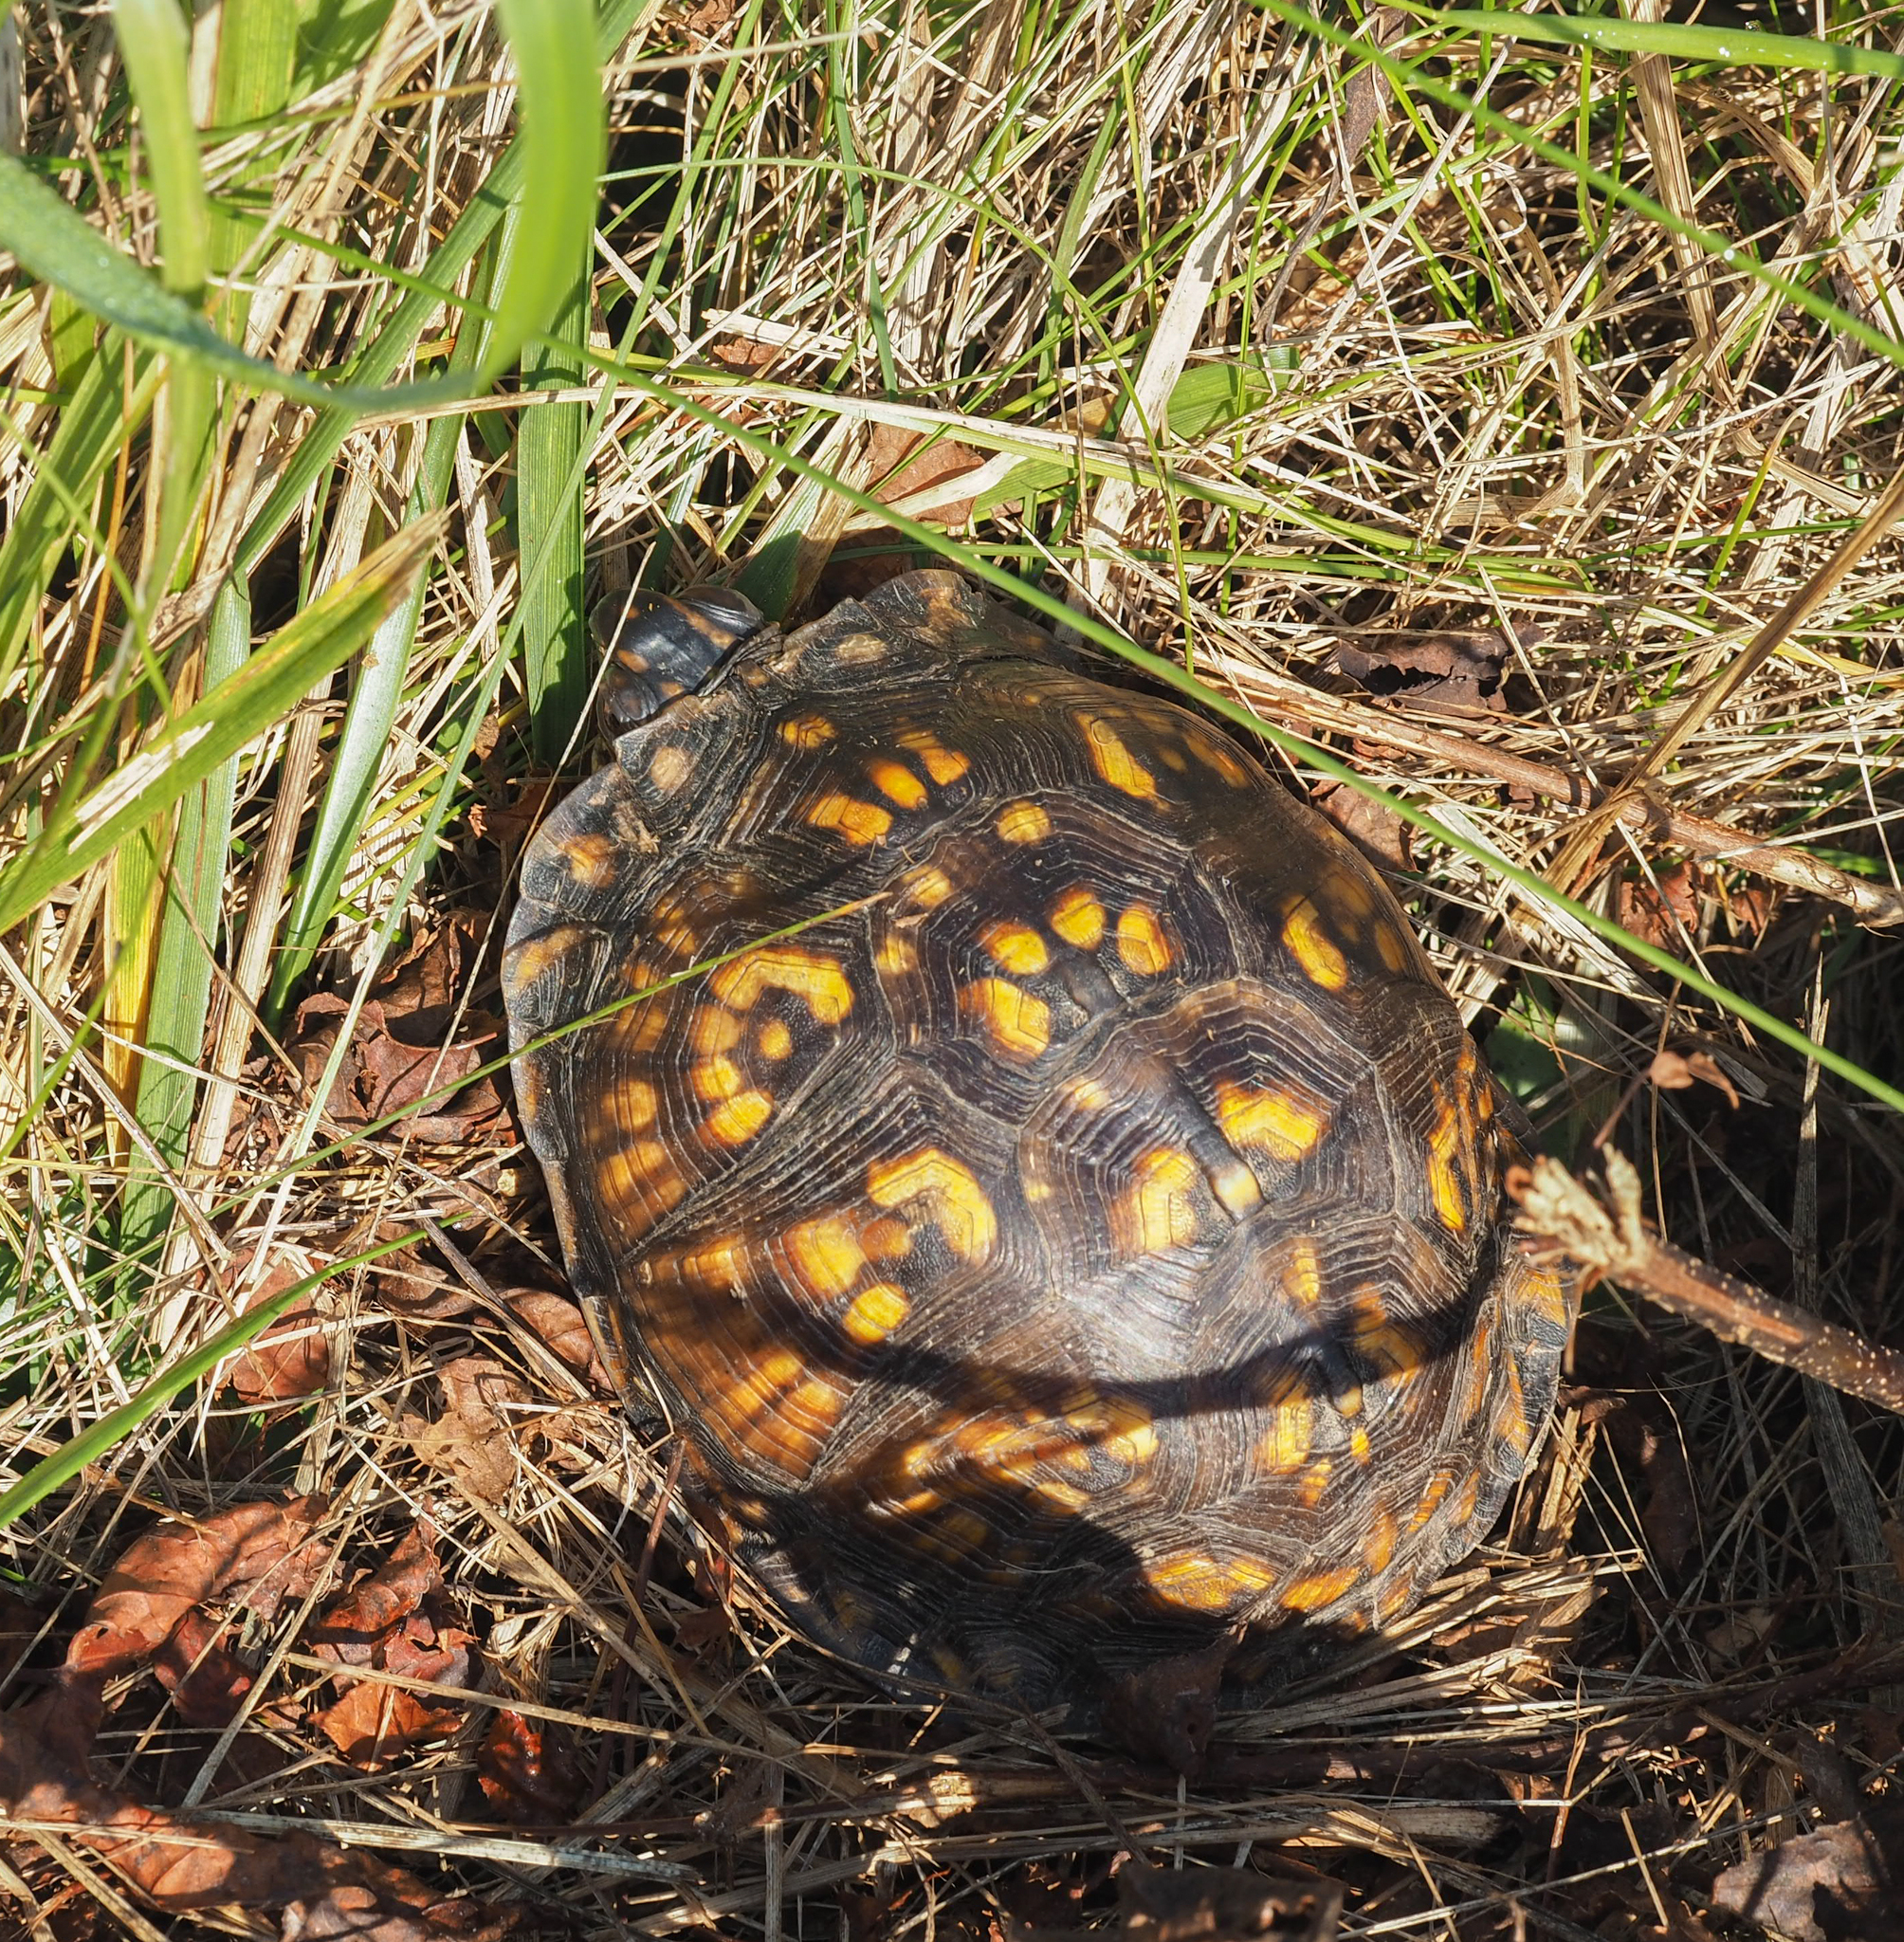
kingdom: Animalia
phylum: Chordata
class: Testudines
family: Emydidae
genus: Terrapene
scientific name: Terrapene carolina
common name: Common box turtle
